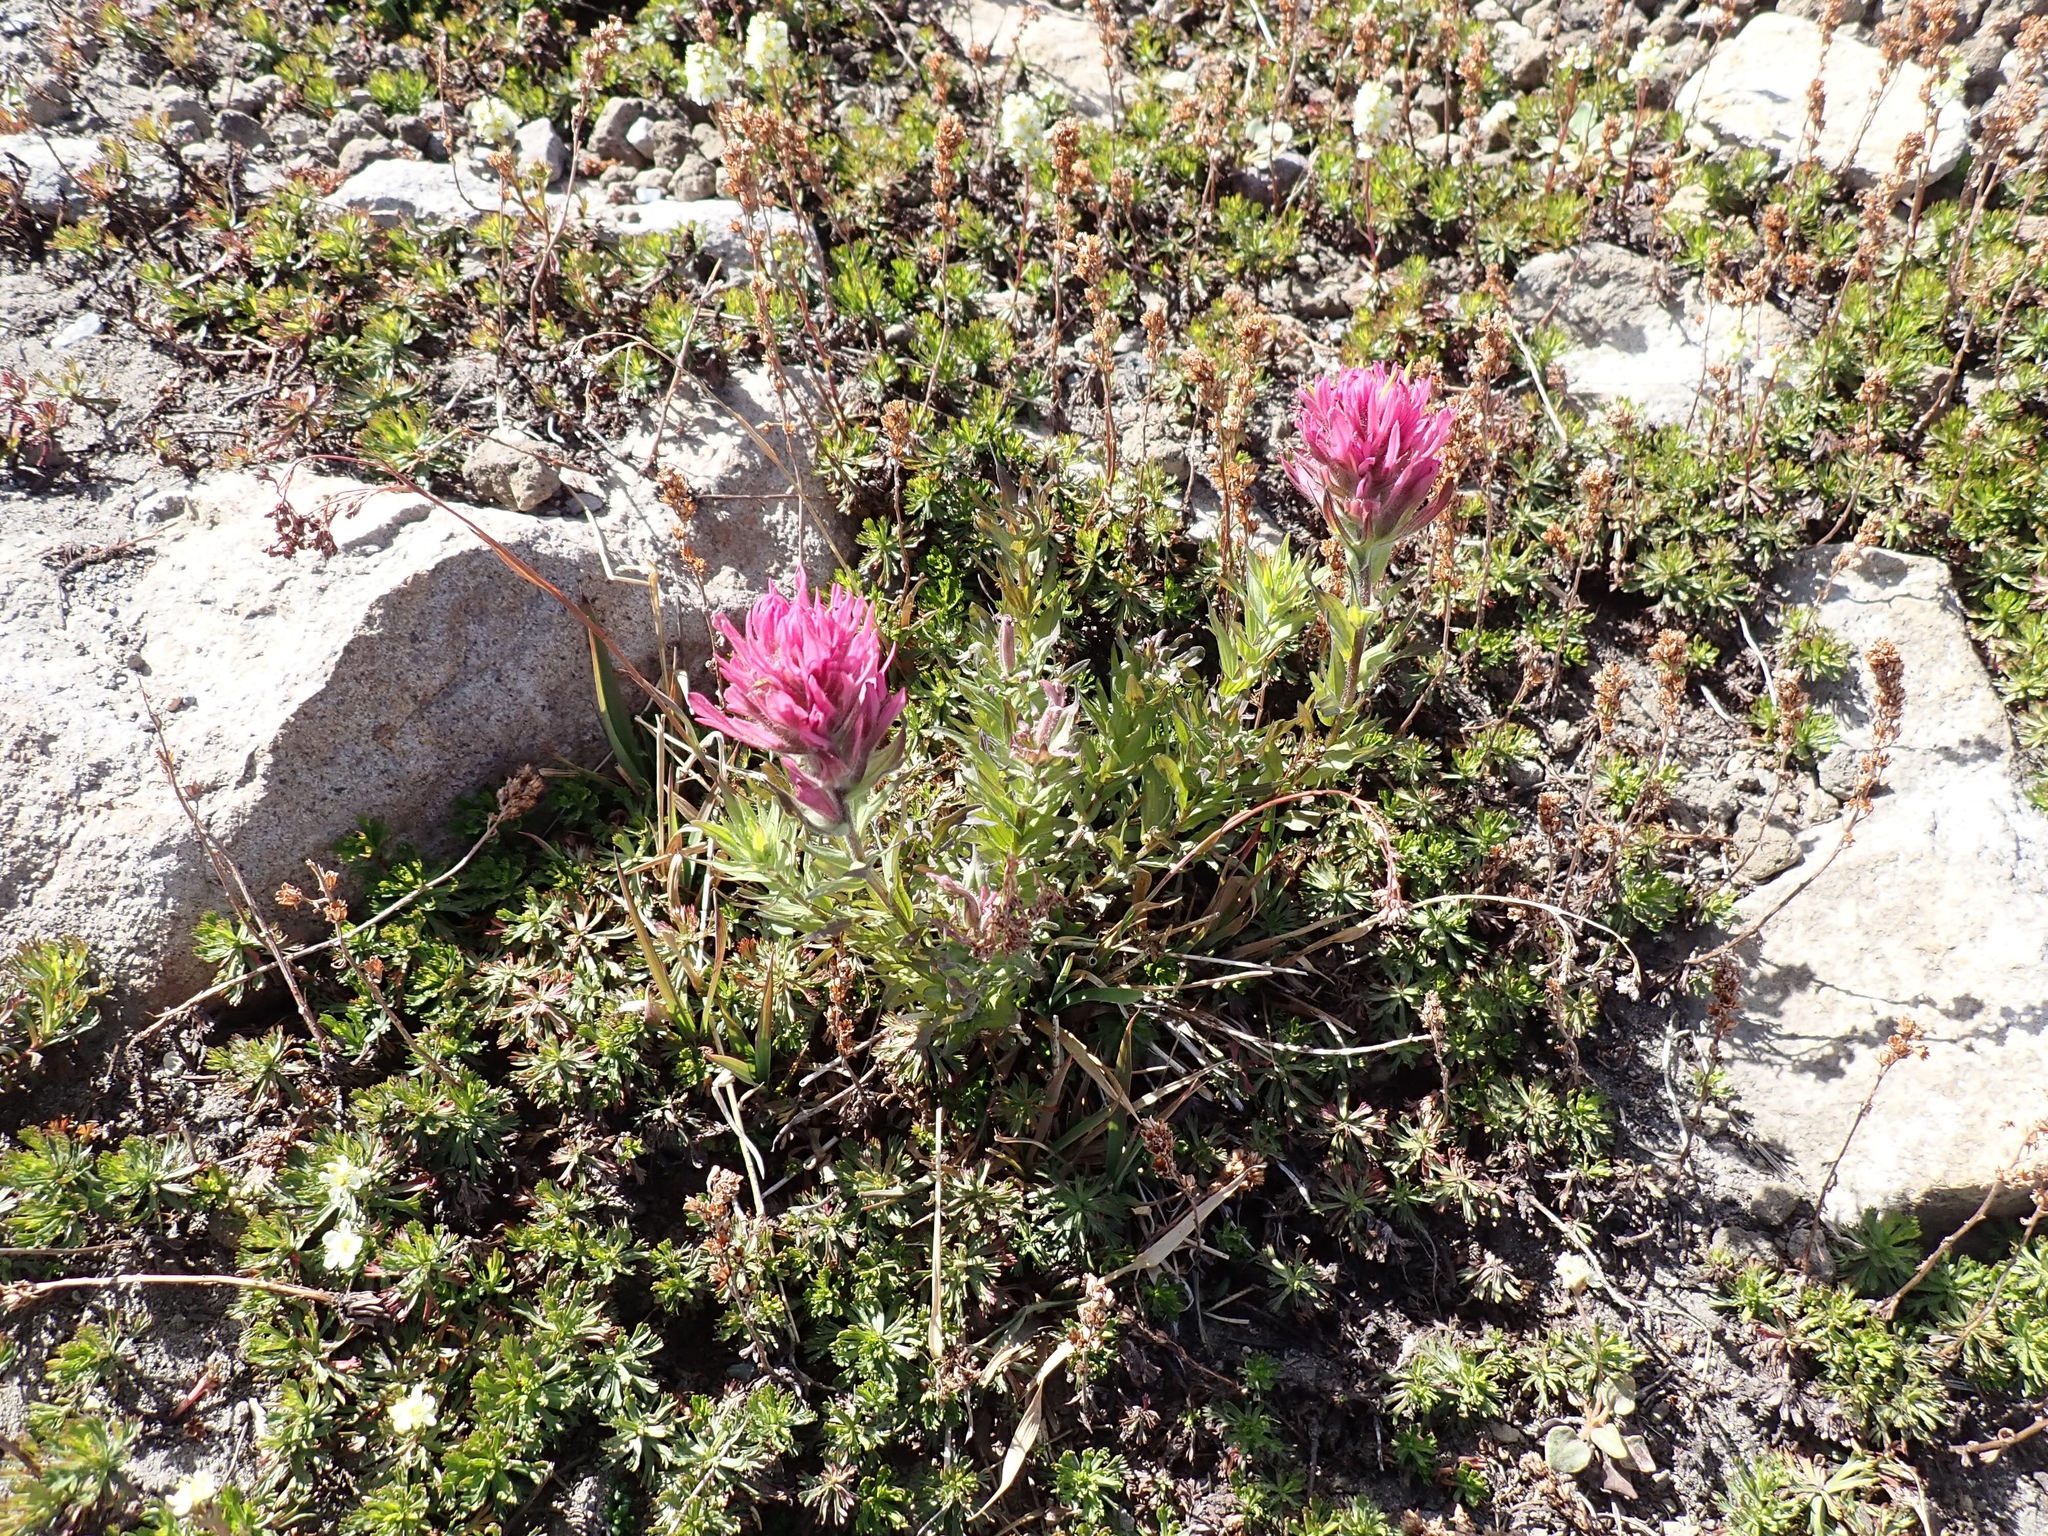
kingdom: Plantae
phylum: Tracheophyta
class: Magnoliopsida
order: Lamiales
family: Orobanchaceae
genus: Castilleja
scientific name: Castilleja parviflora
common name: Mountain paintbrush
